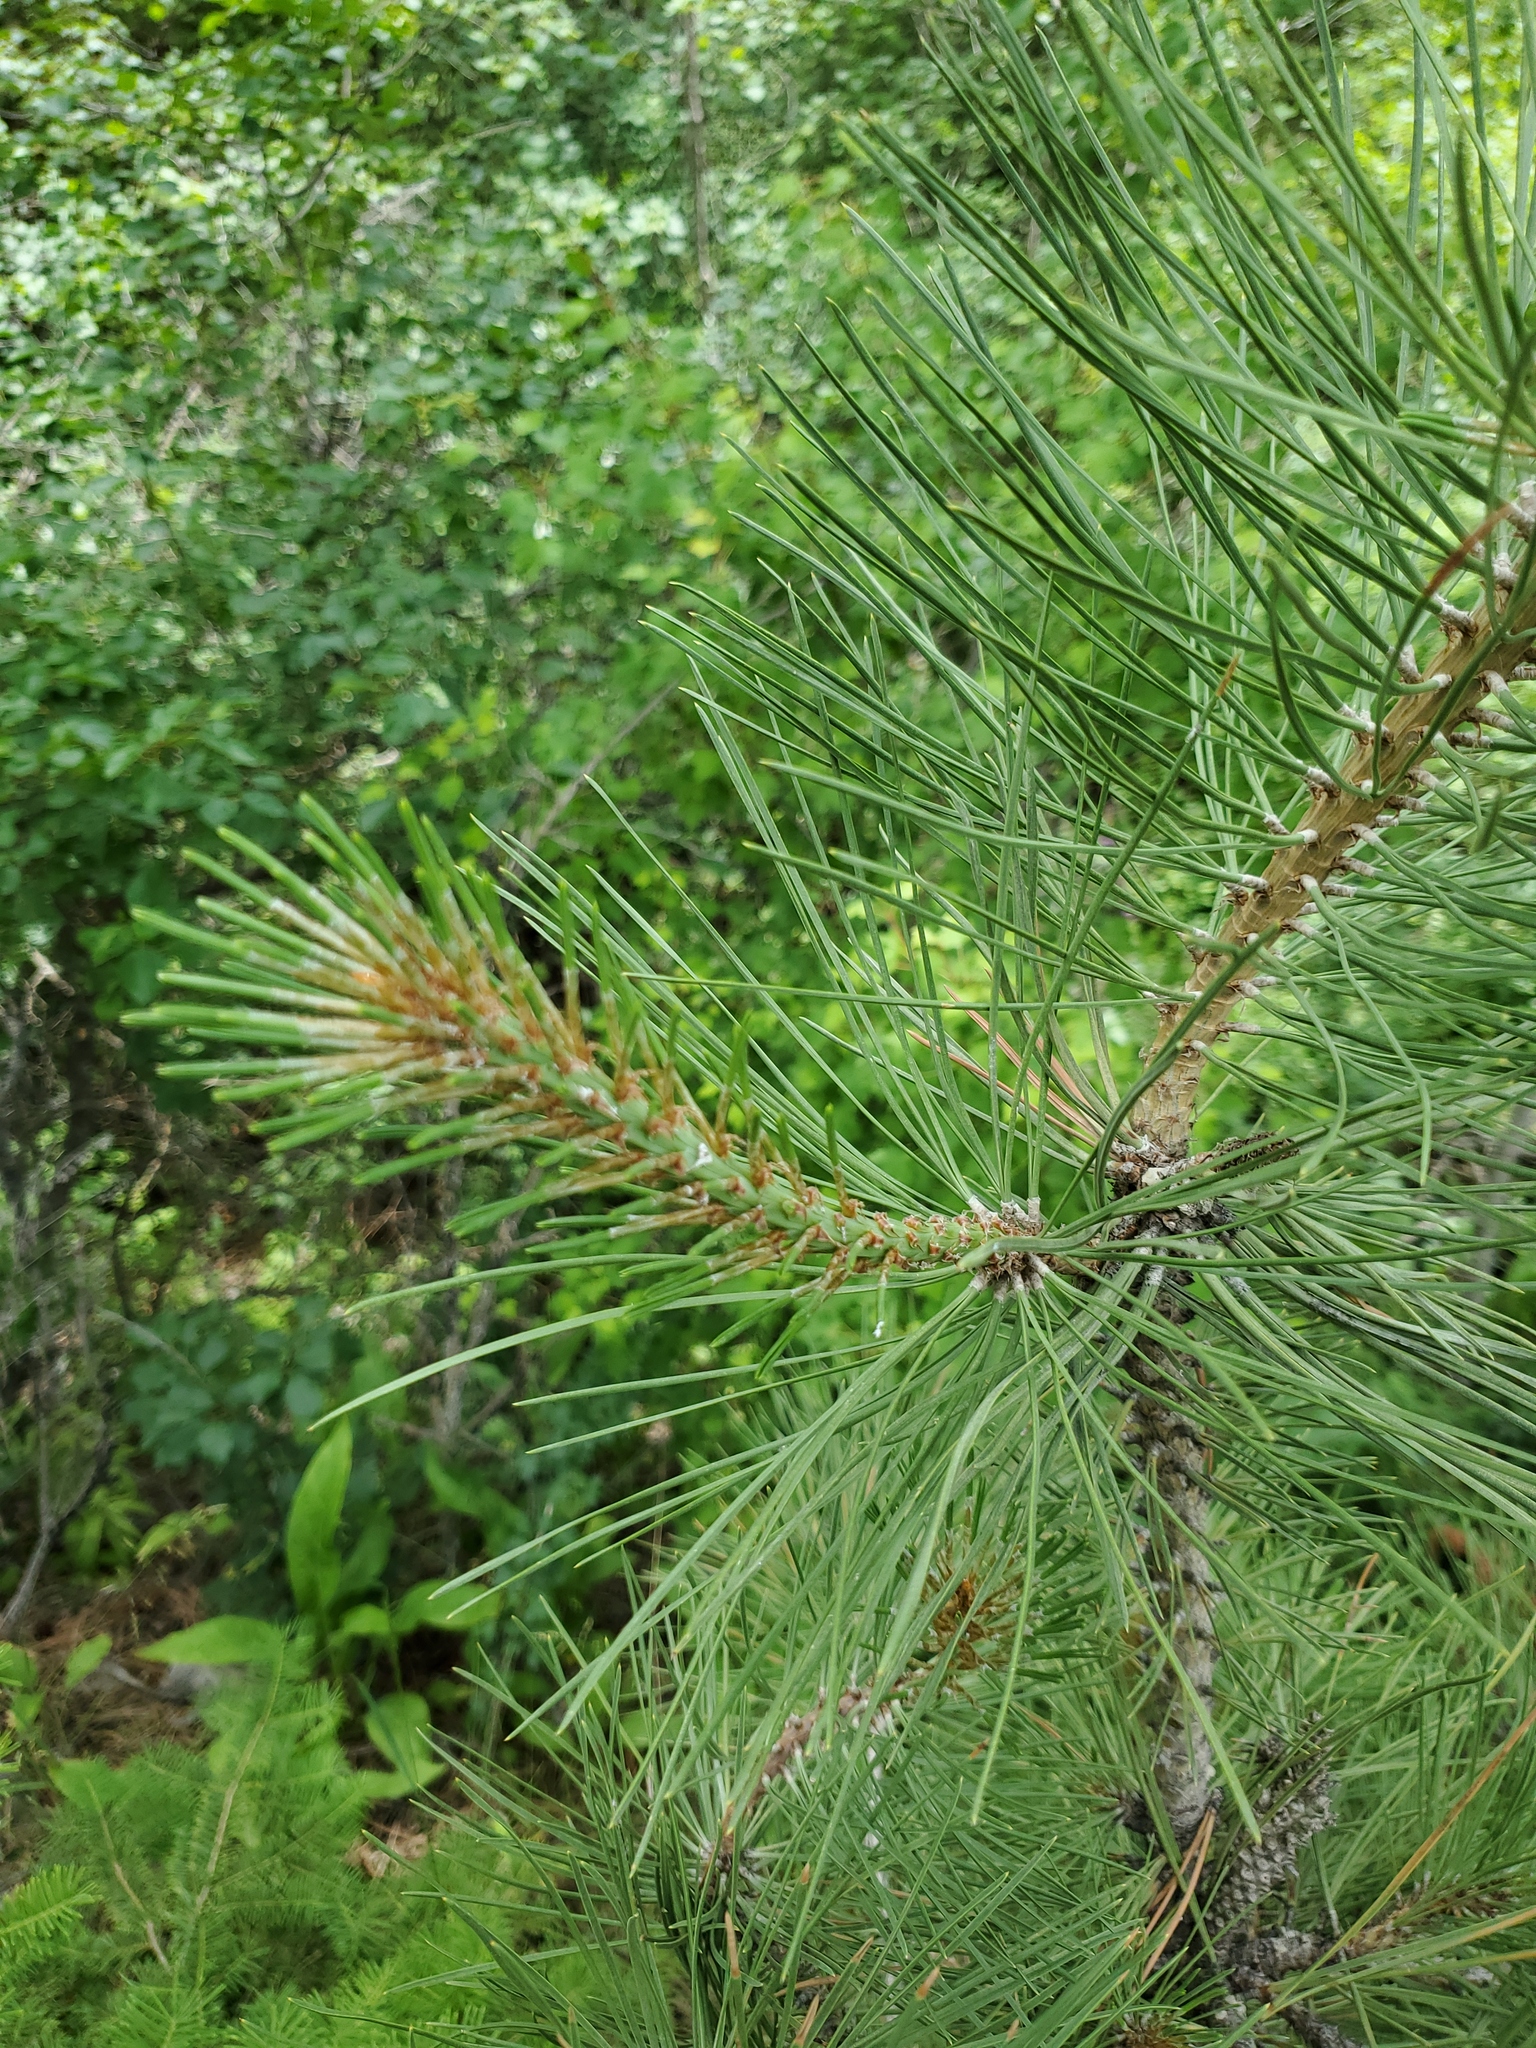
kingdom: Plantae
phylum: Tracheophyta
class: Pinopsida
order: Pinales
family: Pinaceae
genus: Pinus
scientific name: Pinus ponderosa
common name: Western yellow-pine
